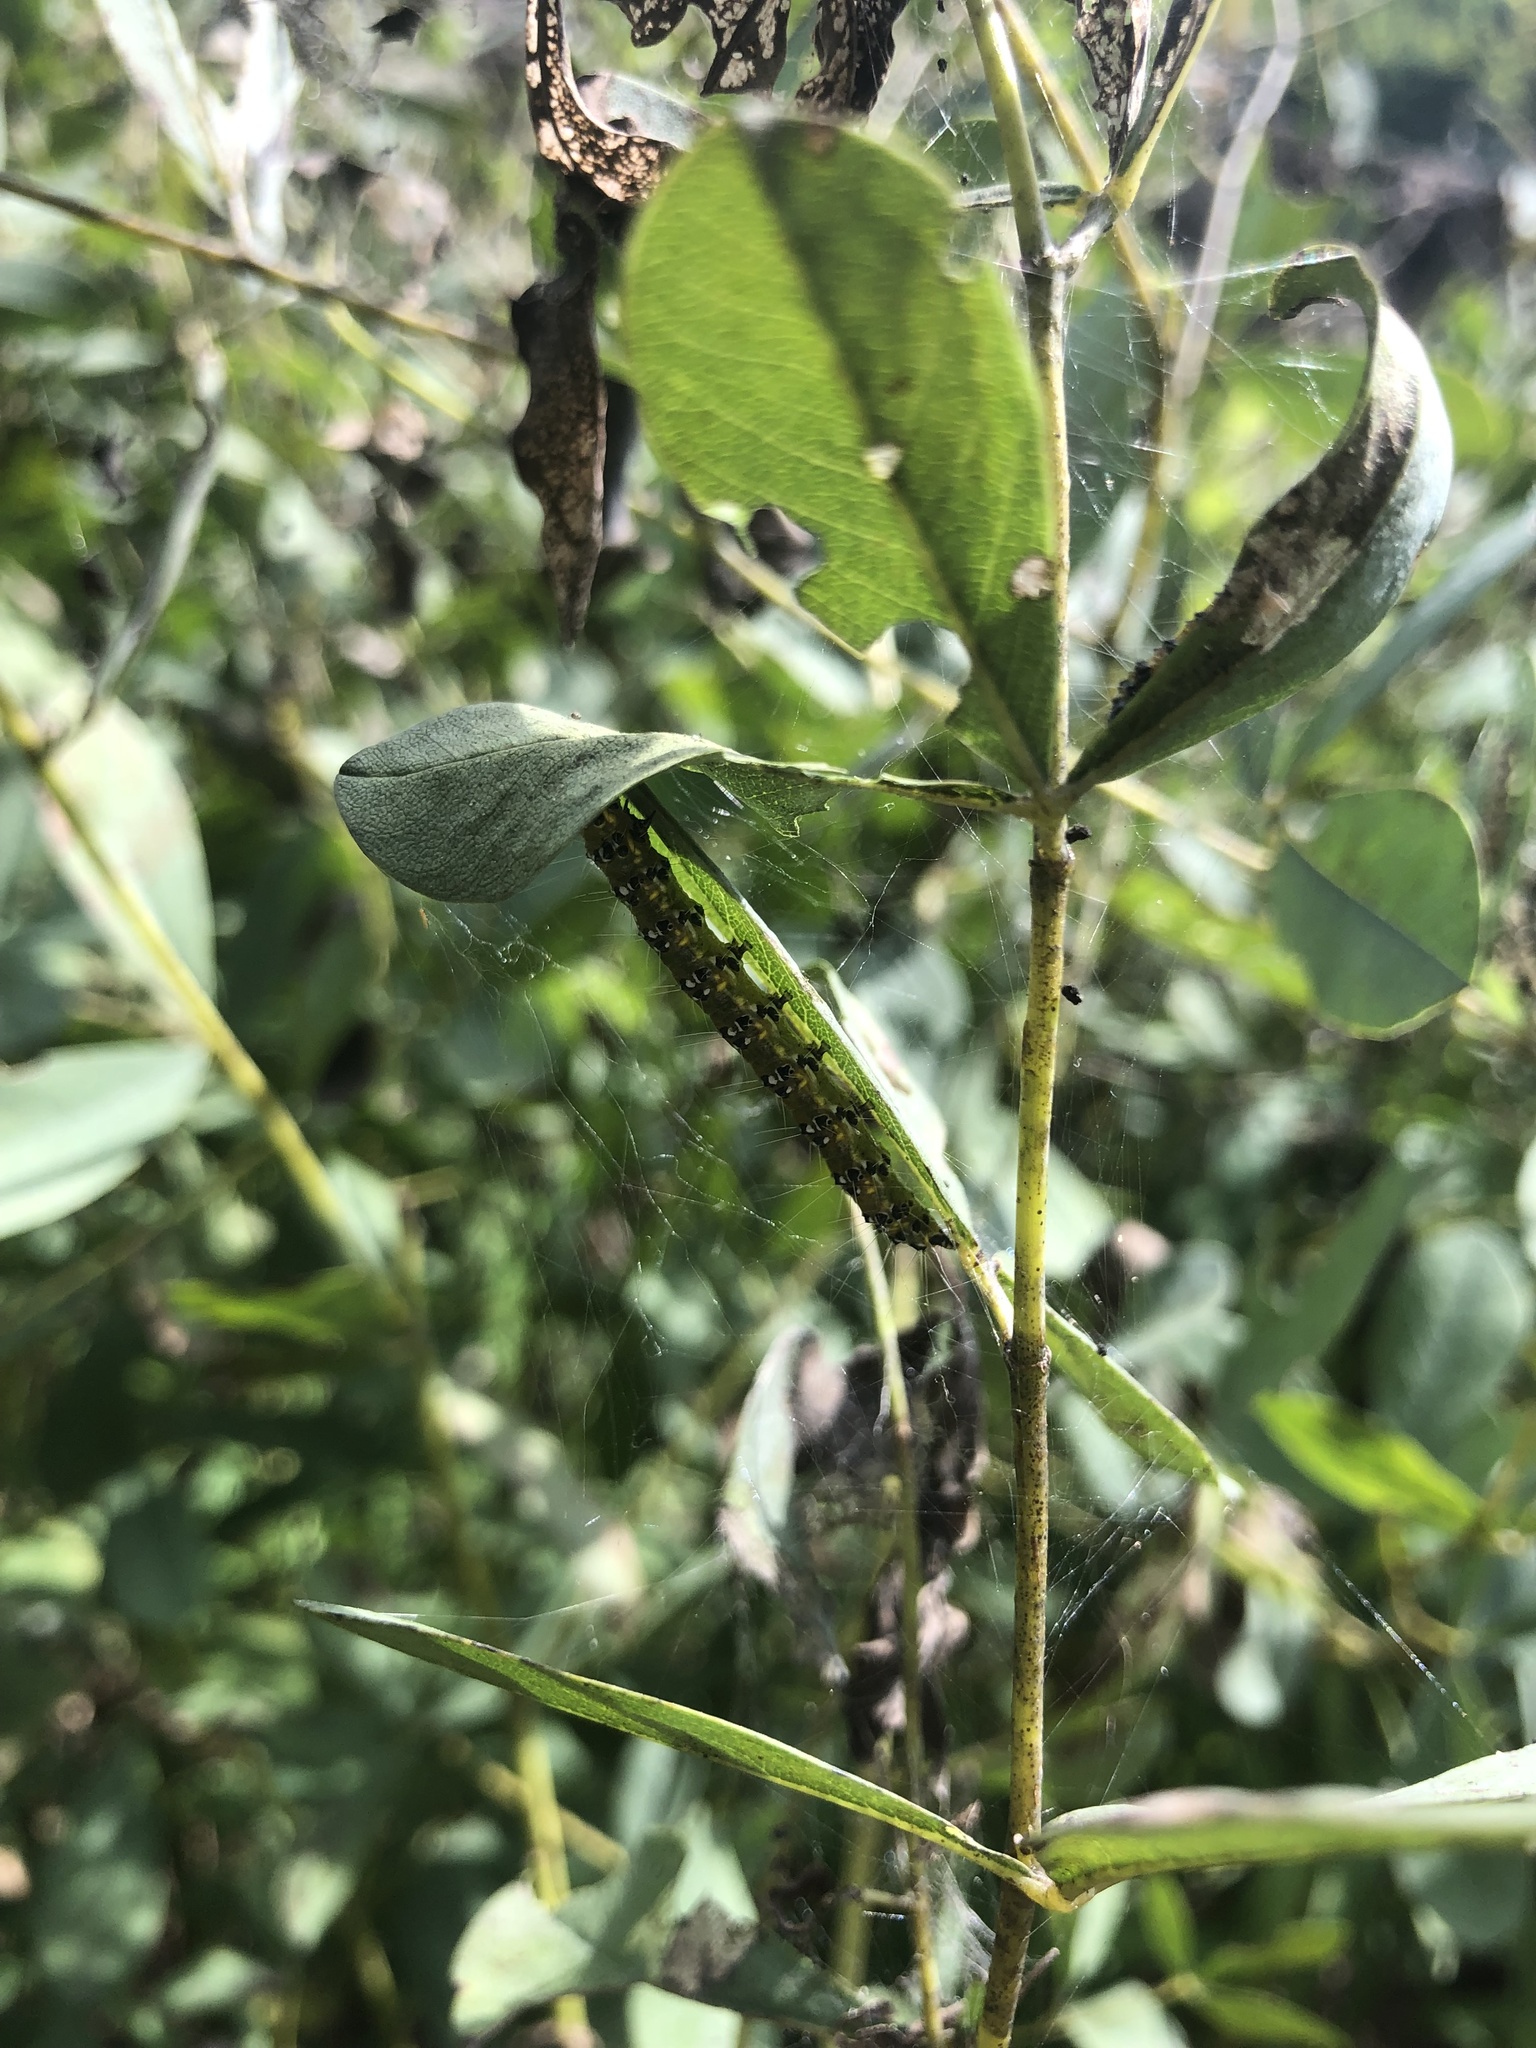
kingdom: Animalia
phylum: Arthropoda
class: Insecta
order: Lepidoptera
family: Crambidae
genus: Uresiphita
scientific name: Uresiphita reversalis
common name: Genista broom moth
